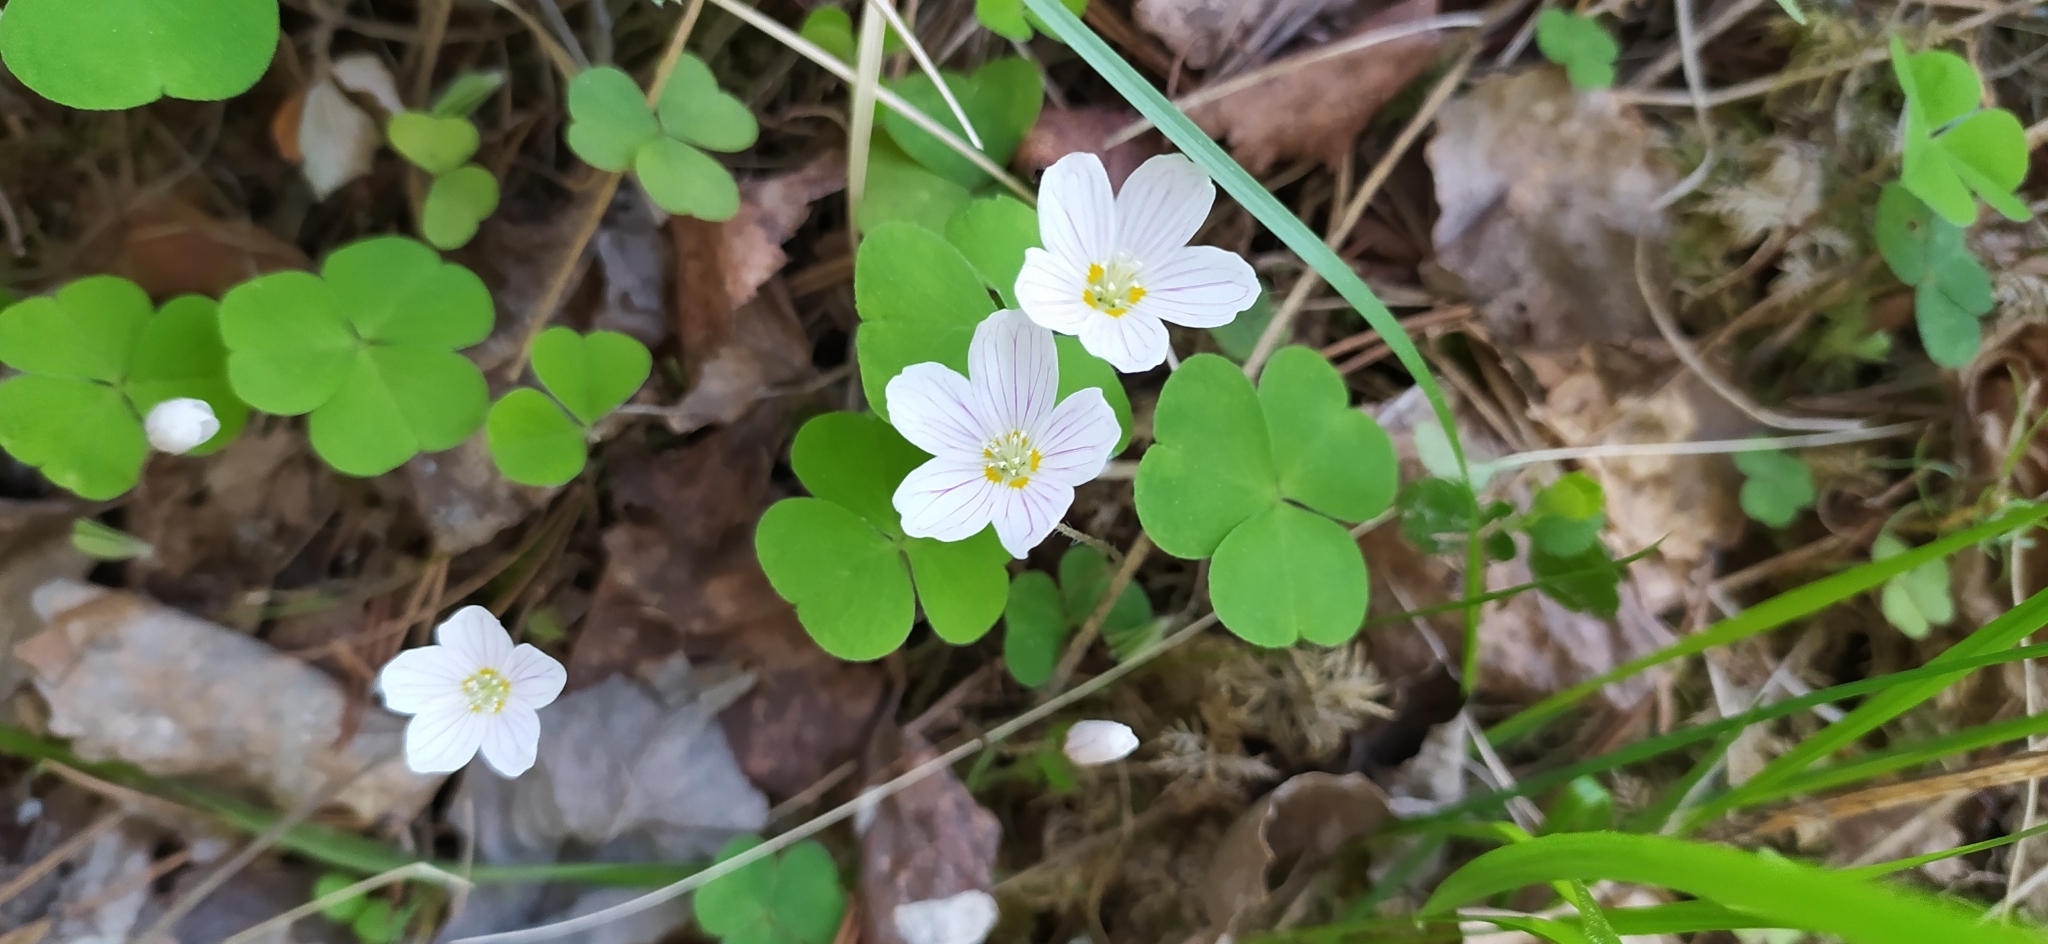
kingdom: Plantae
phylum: Tracheophyta
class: Magnoliopsida
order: Oxalidales
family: Oxalidaceae
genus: Oxalis
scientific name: Oxalis acetosella
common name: Wood-sorrel
